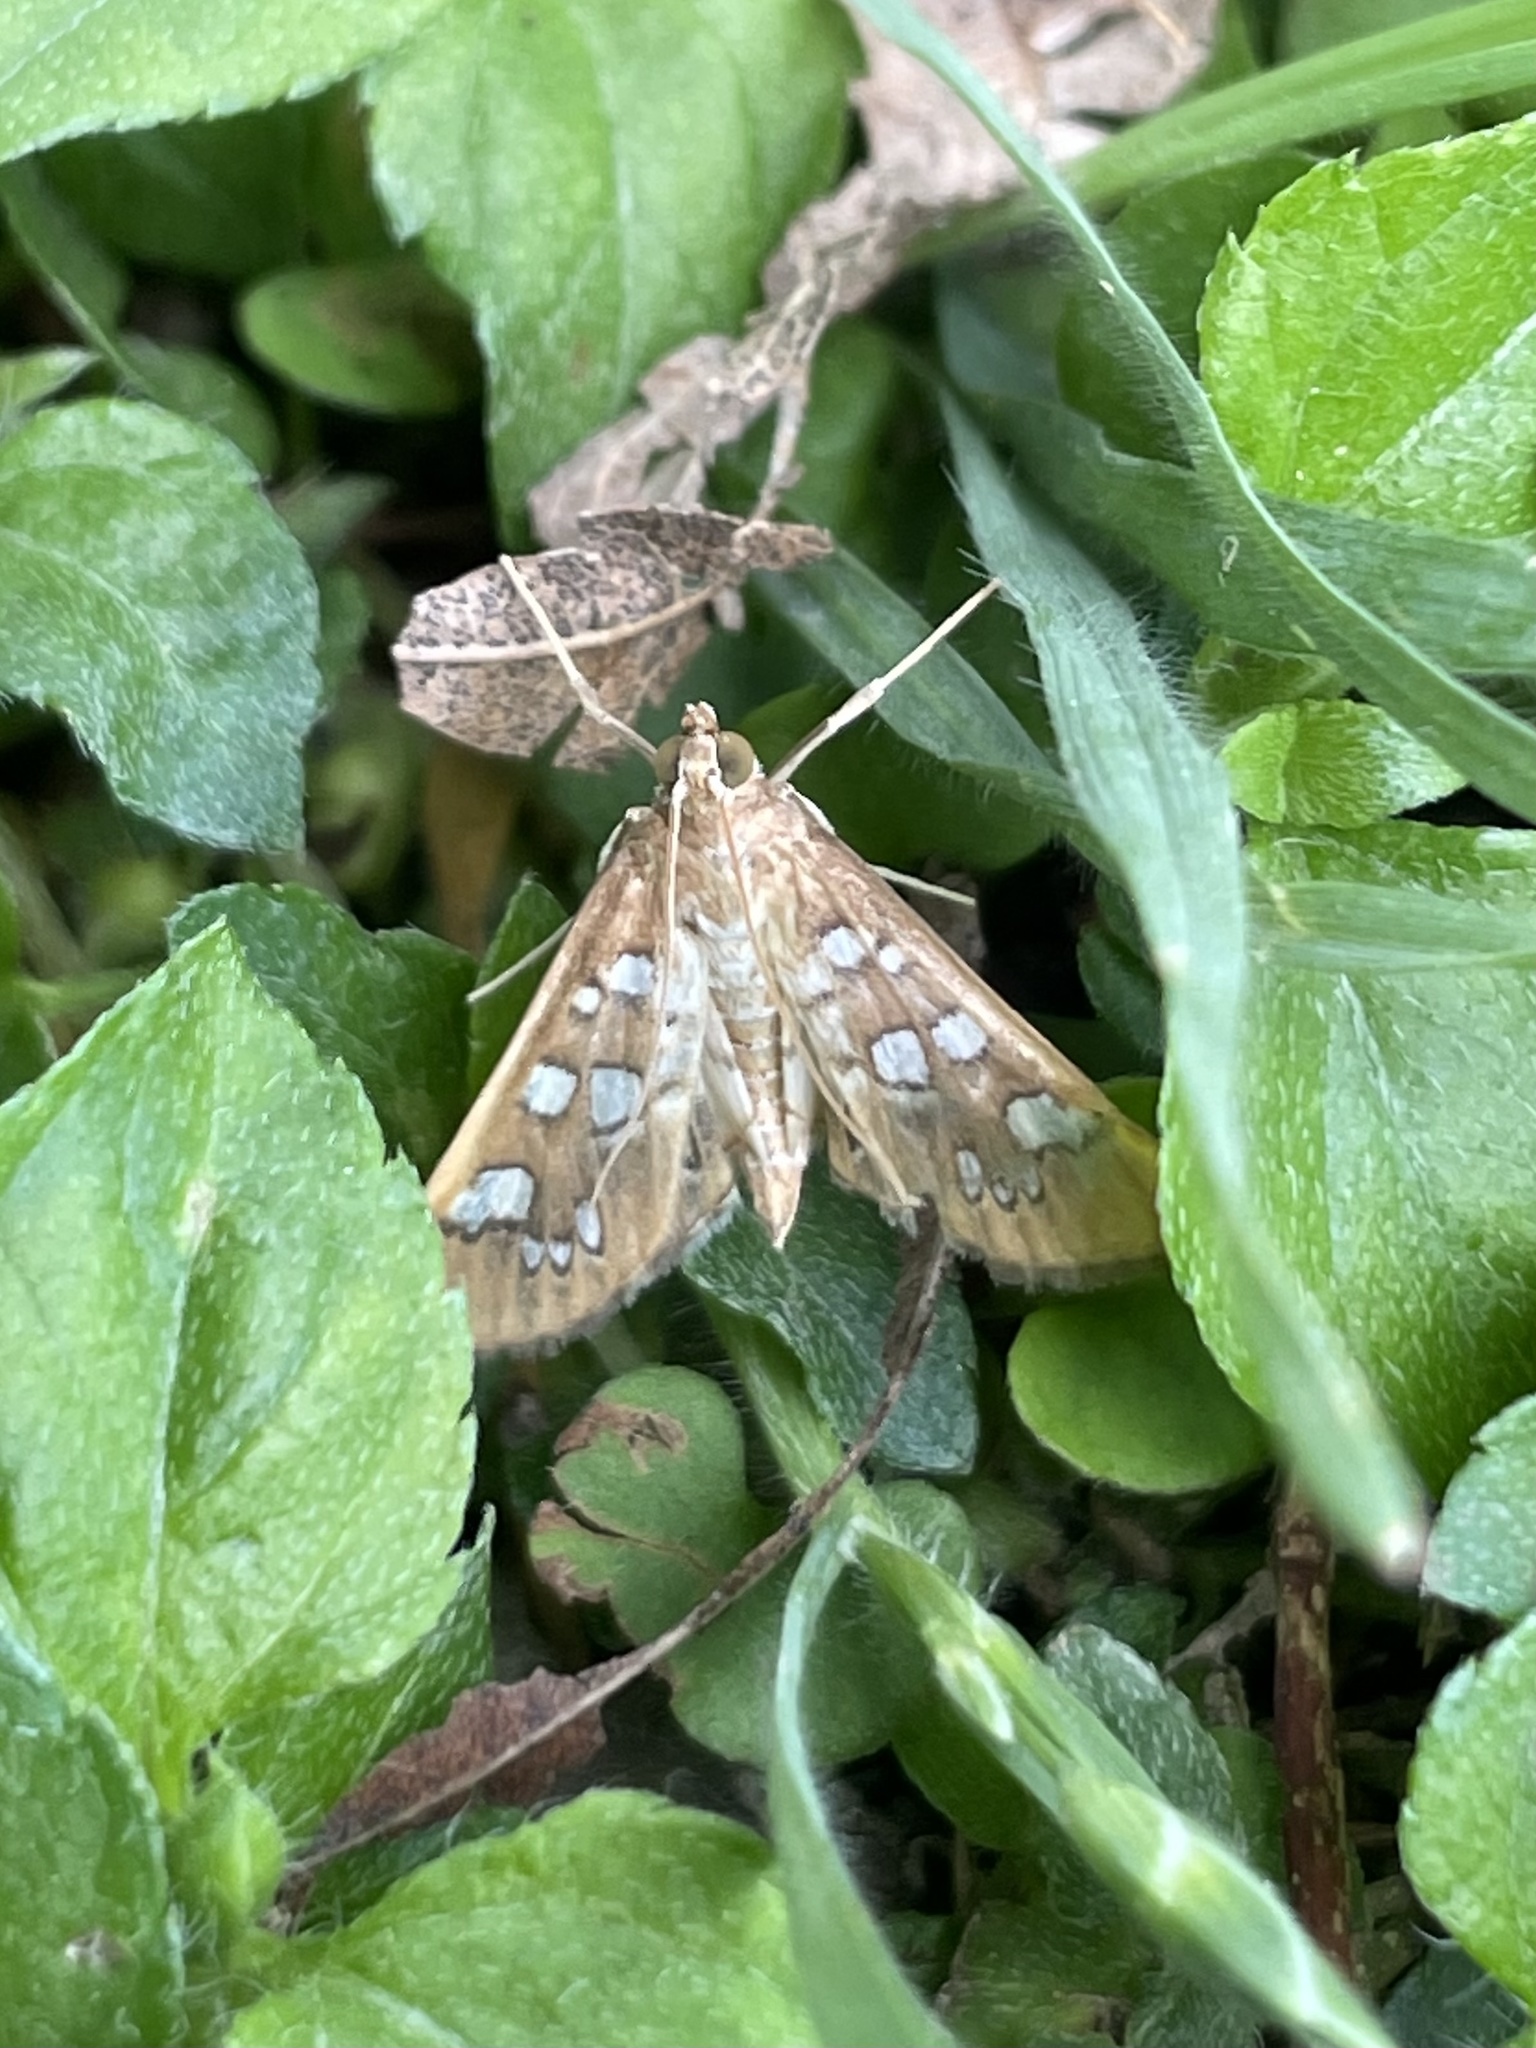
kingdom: Animalia
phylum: Arthropoda
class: Insecta
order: Lepidoptera
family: Crambidae
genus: Samea
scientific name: Samea baccatalis
